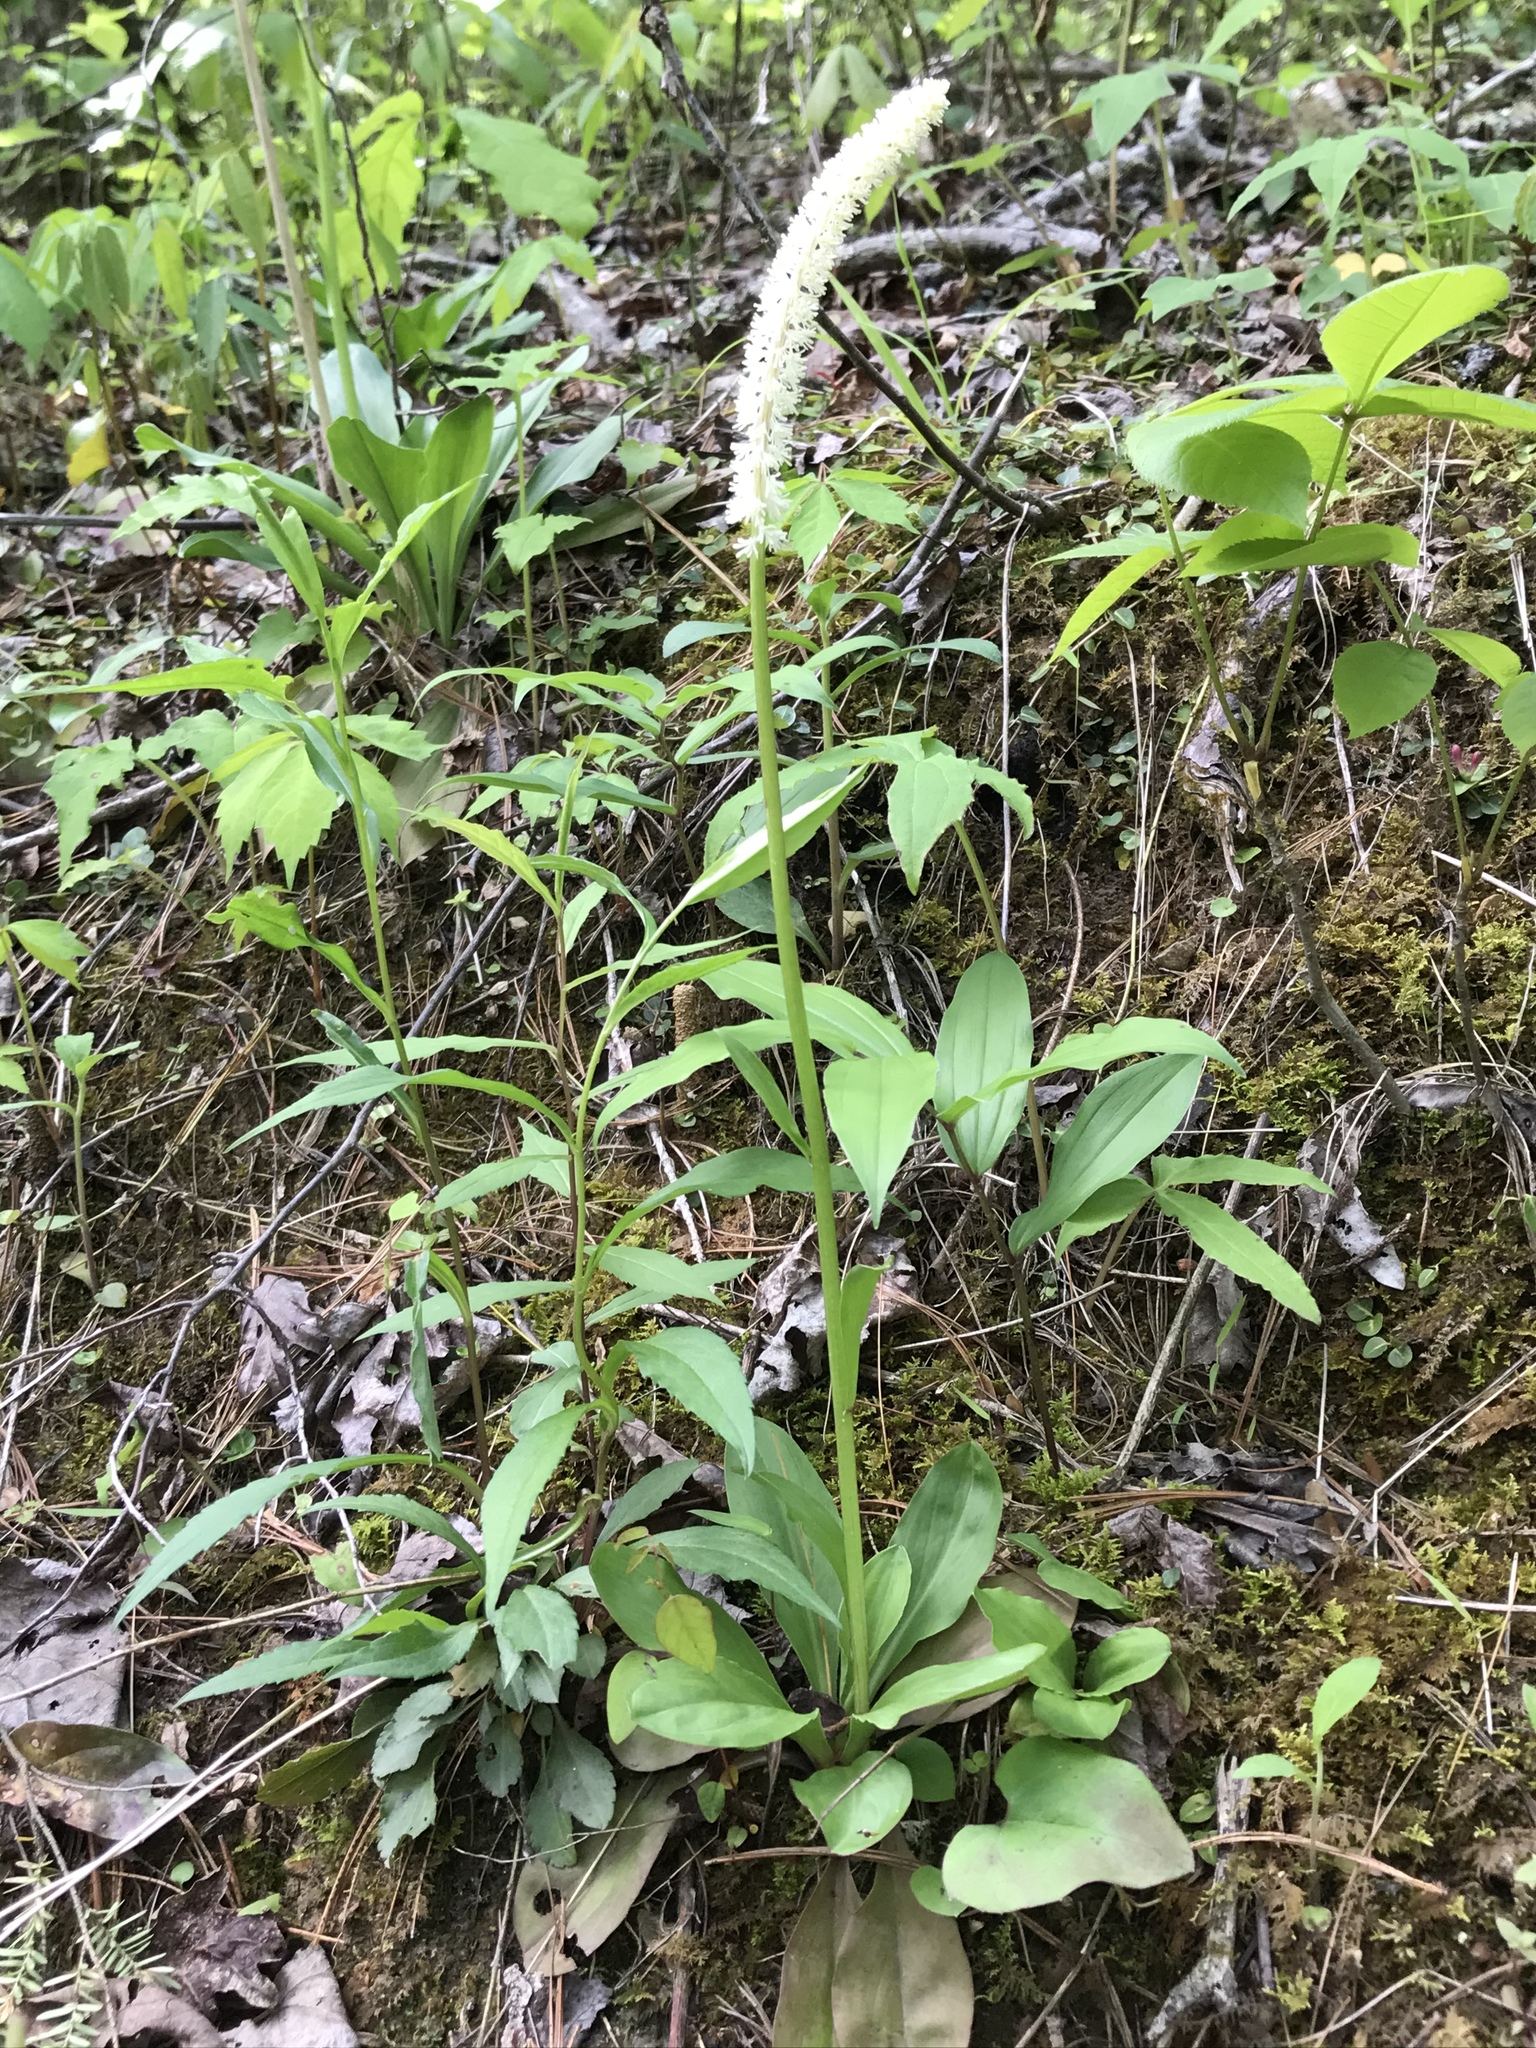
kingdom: Plantae
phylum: Tracheophyta
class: Liliopsida
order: Liliales
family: Melanthiaceae
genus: Chamaelirium
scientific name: Chamaelirium luteum
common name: Fairy-wand
